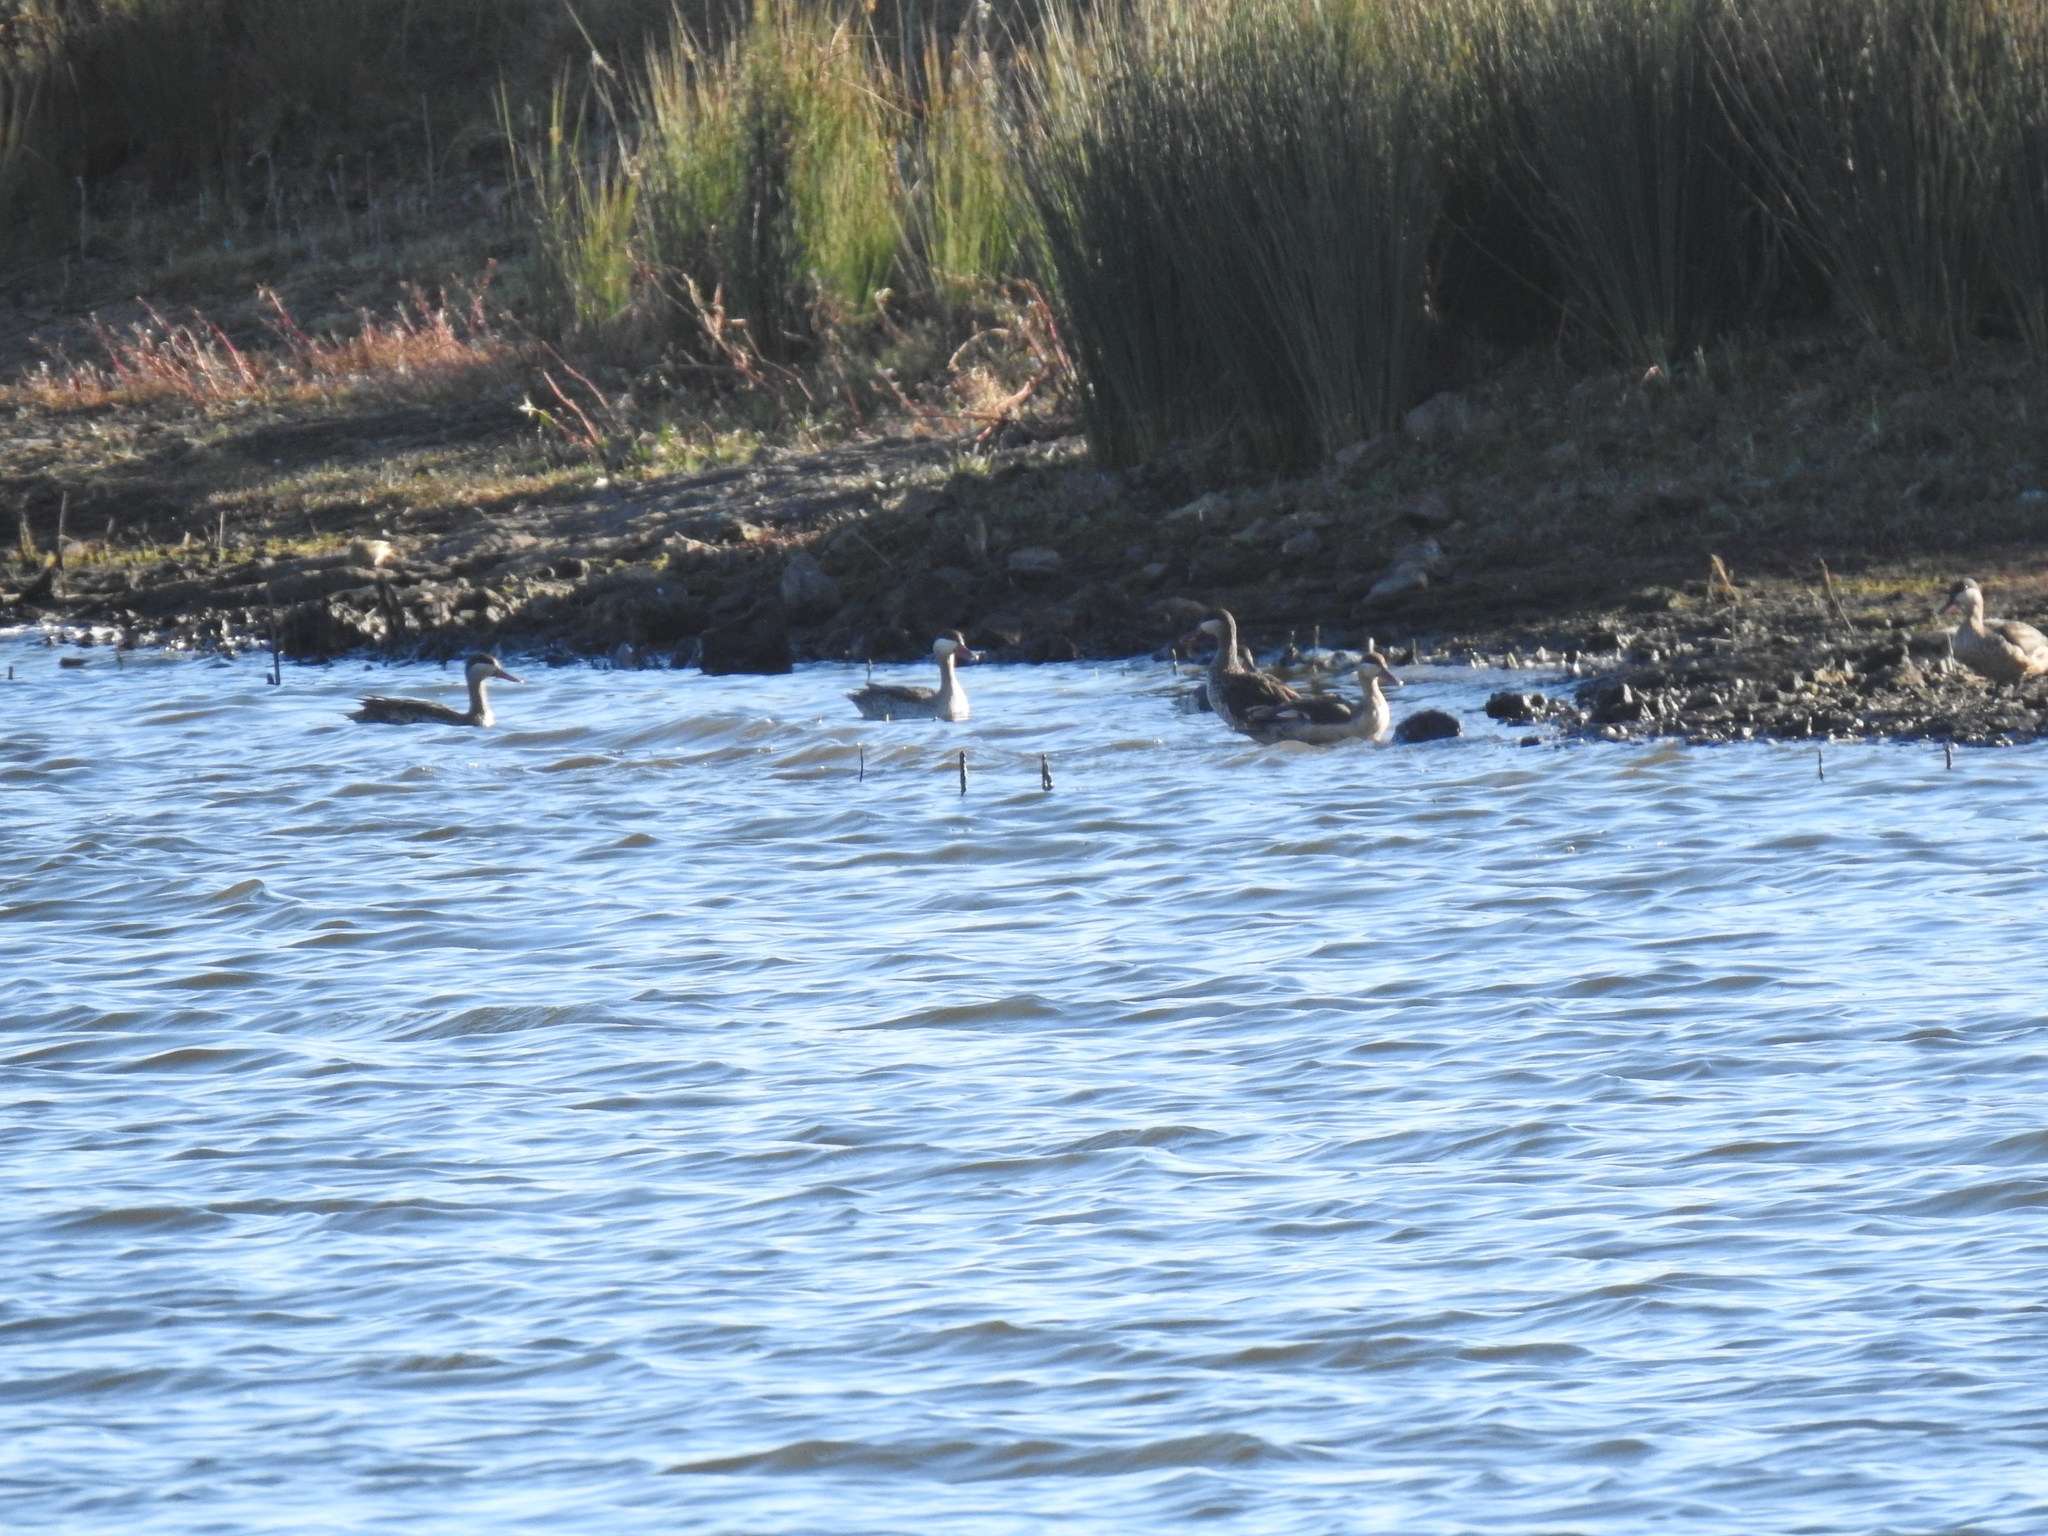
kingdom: Animalia
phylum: Chordata
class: Aves
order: Anseriformes
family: Anatidae
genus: Anas
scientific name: Anas erythrorhyncha
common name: Red-billed teal
